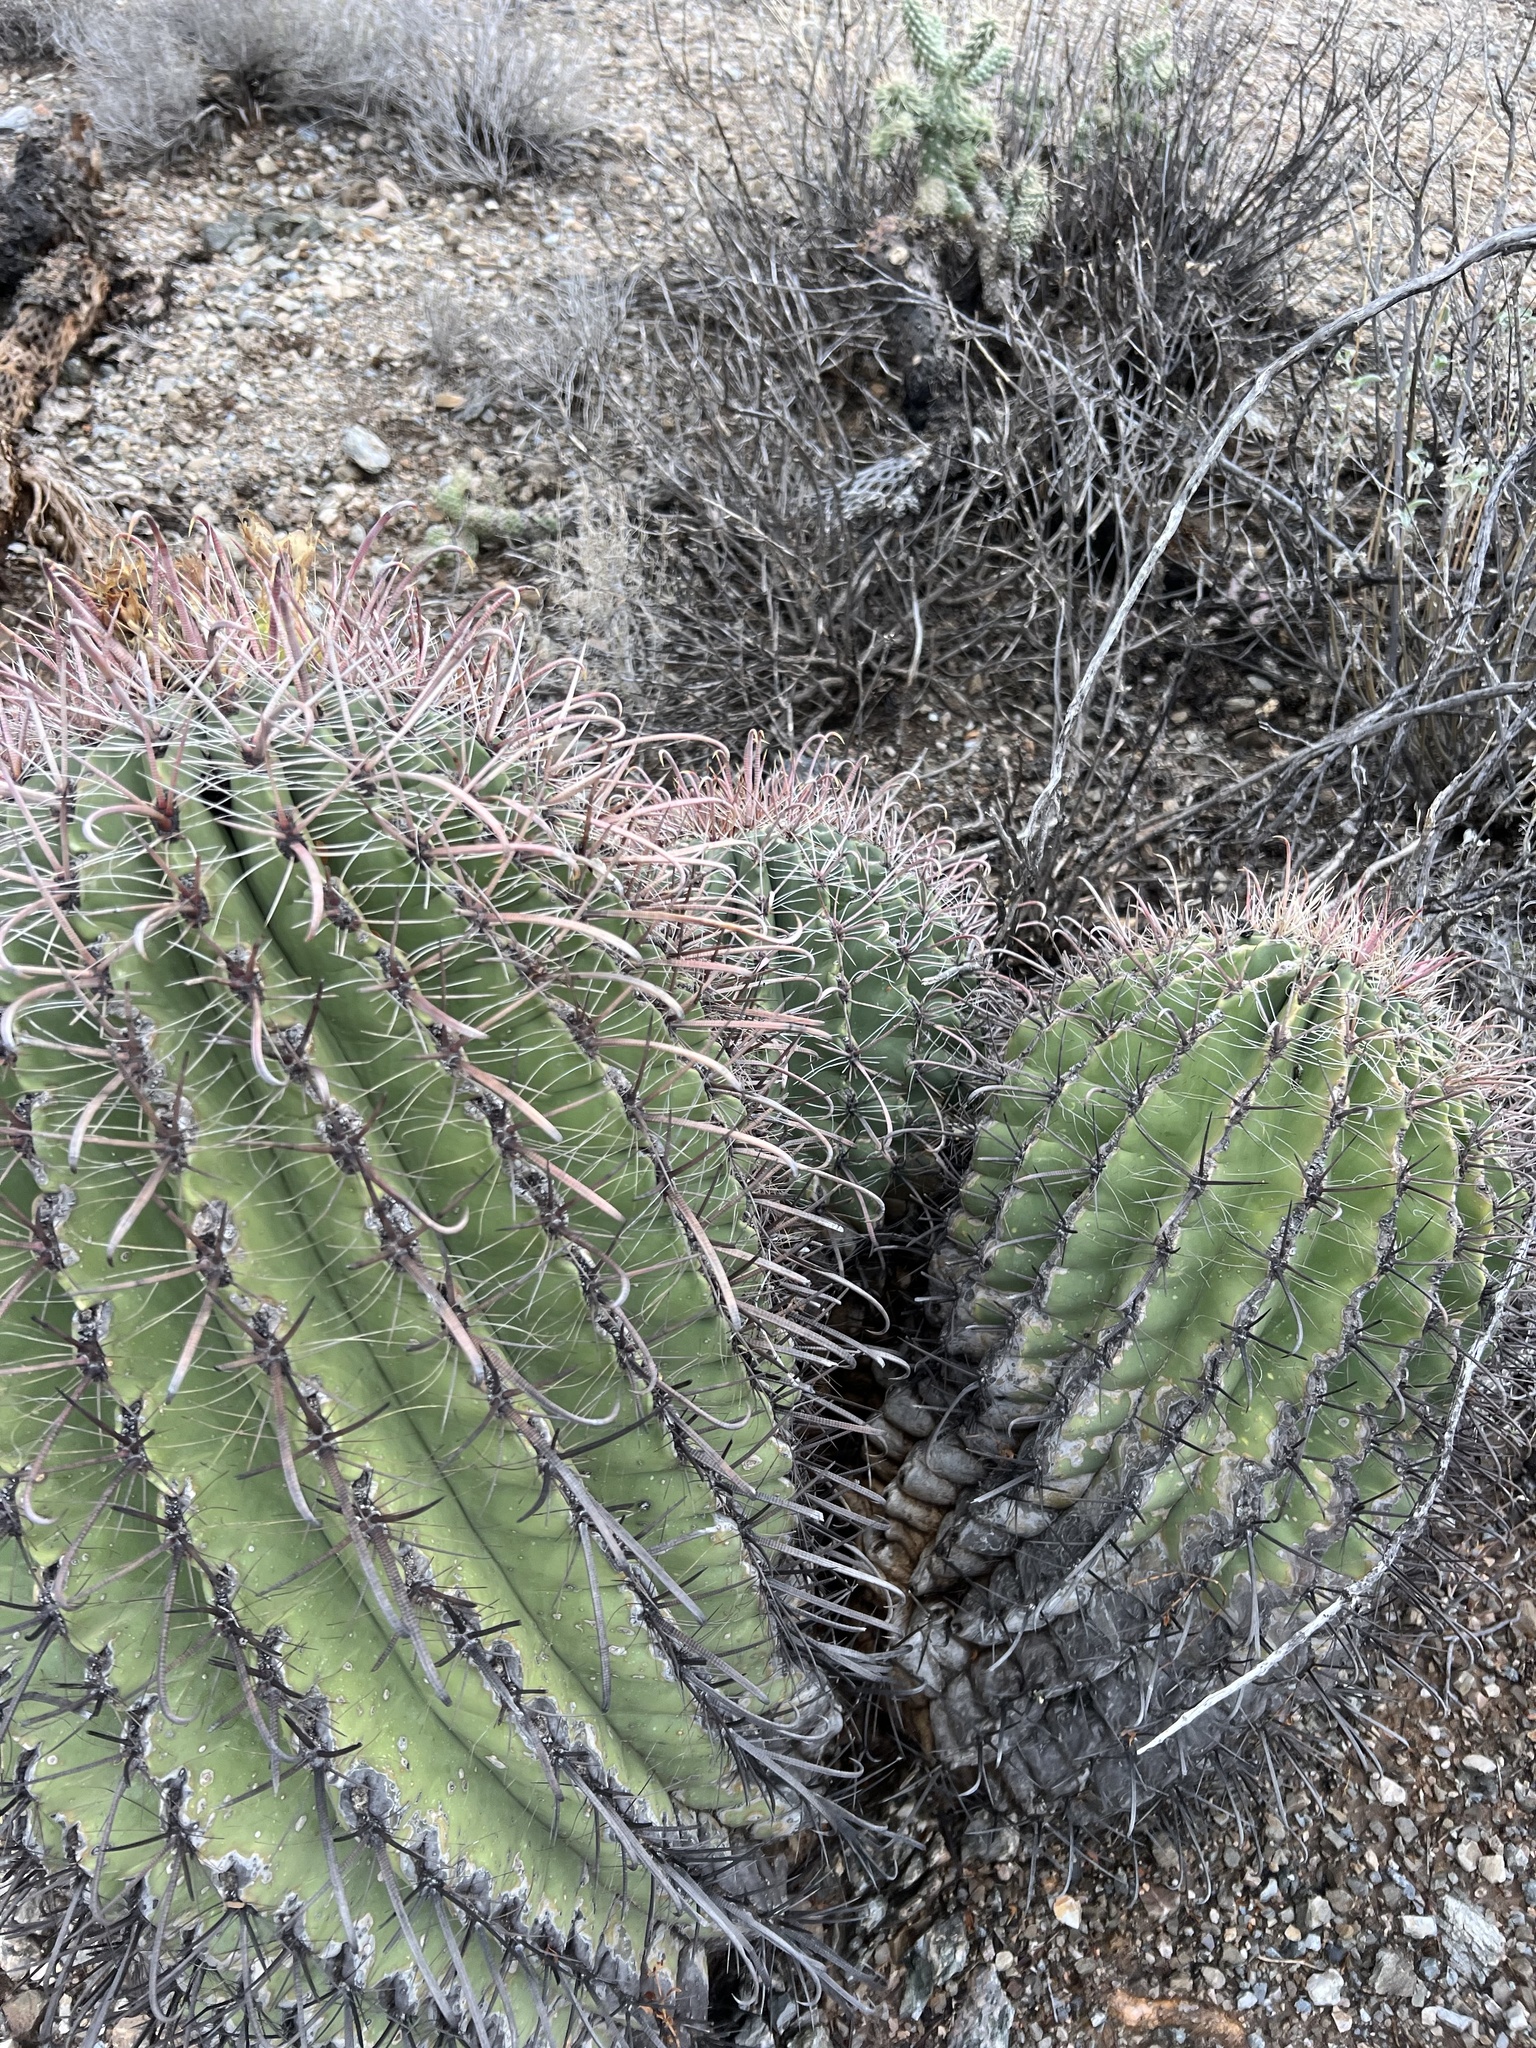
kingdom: Plantae
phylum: Tracheophyta
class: Magnoliopsida
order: Caryophyllales
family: Cactaceae
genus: Ferocactus
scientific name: Ferocactus wislizeni
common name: Candy barrel cactus
